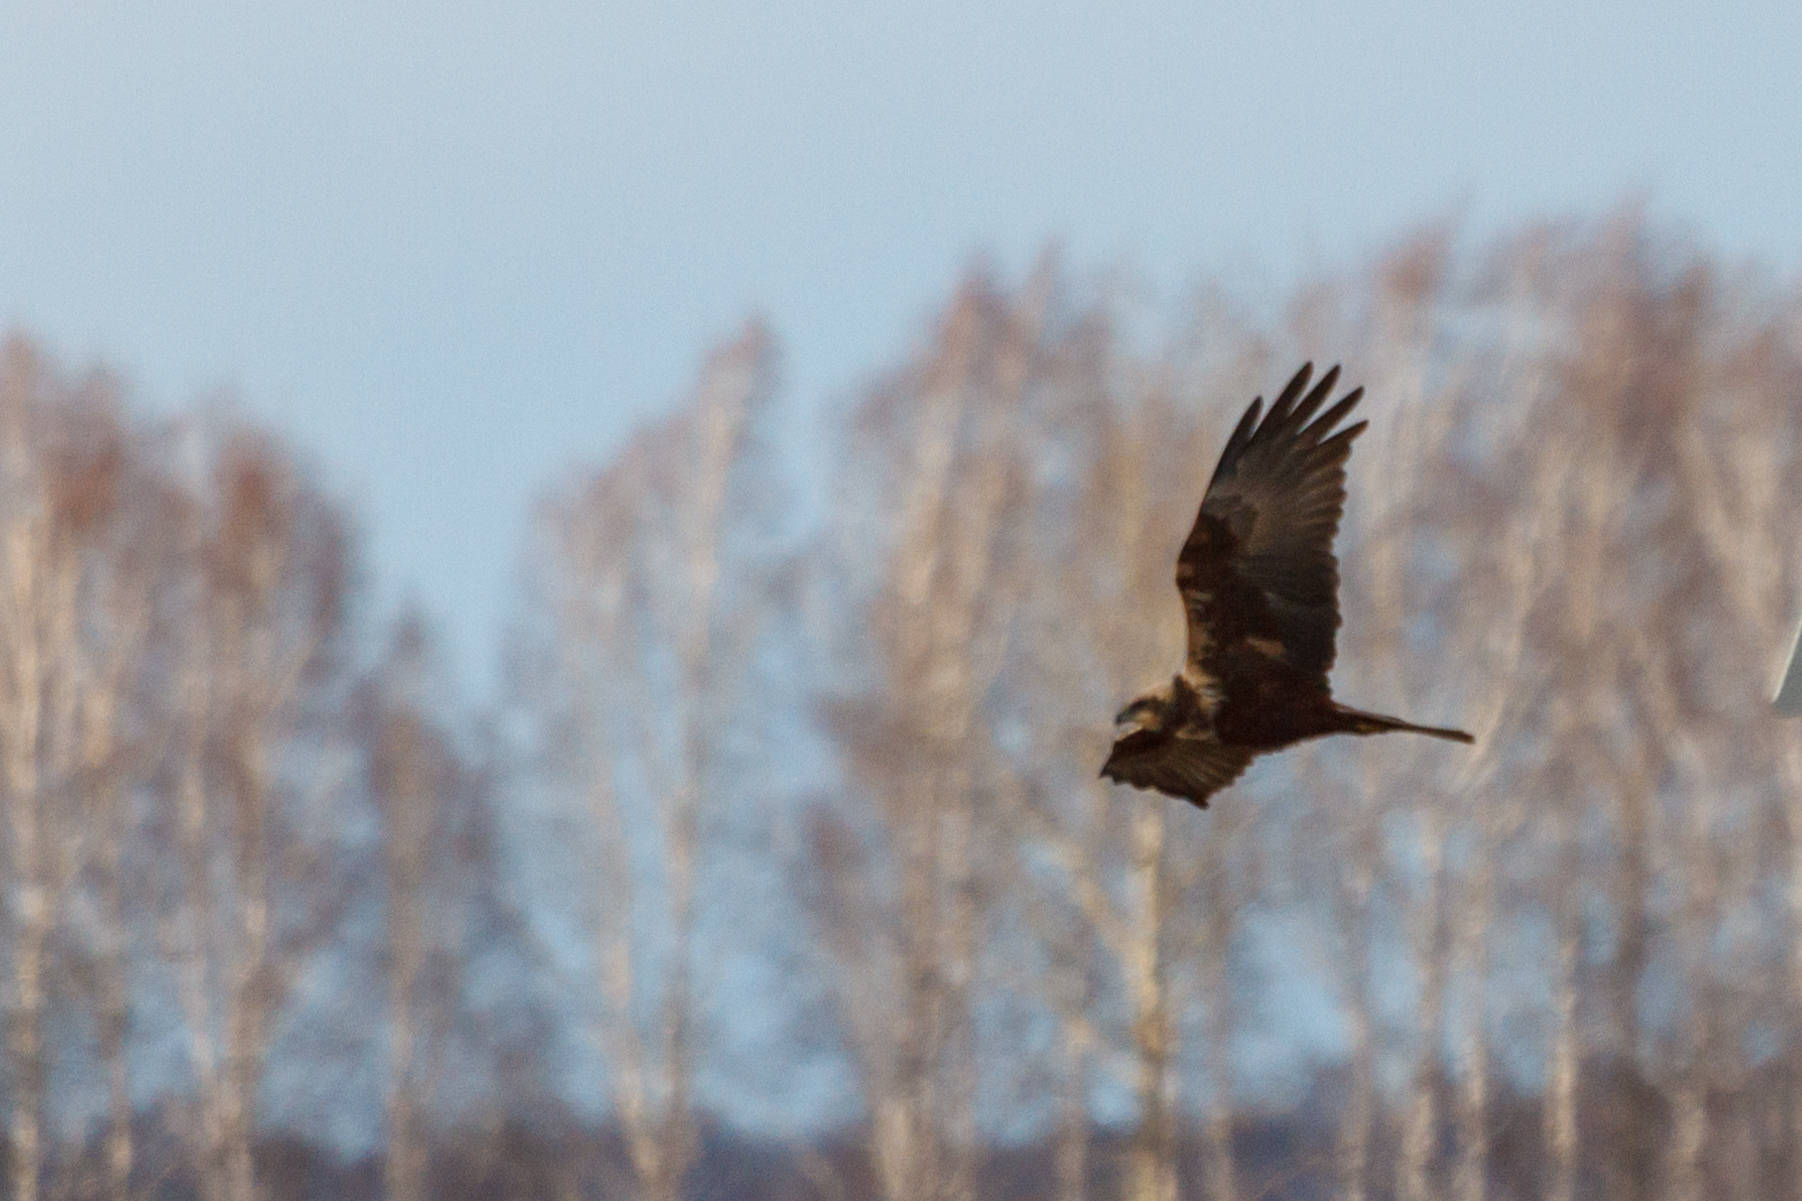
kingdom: Animalia
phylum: Chordata
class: Aves
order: Accipitriformes
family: Accipitridae
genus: Circus
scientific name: Circus aeruginosus
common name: Western marsh harrier
